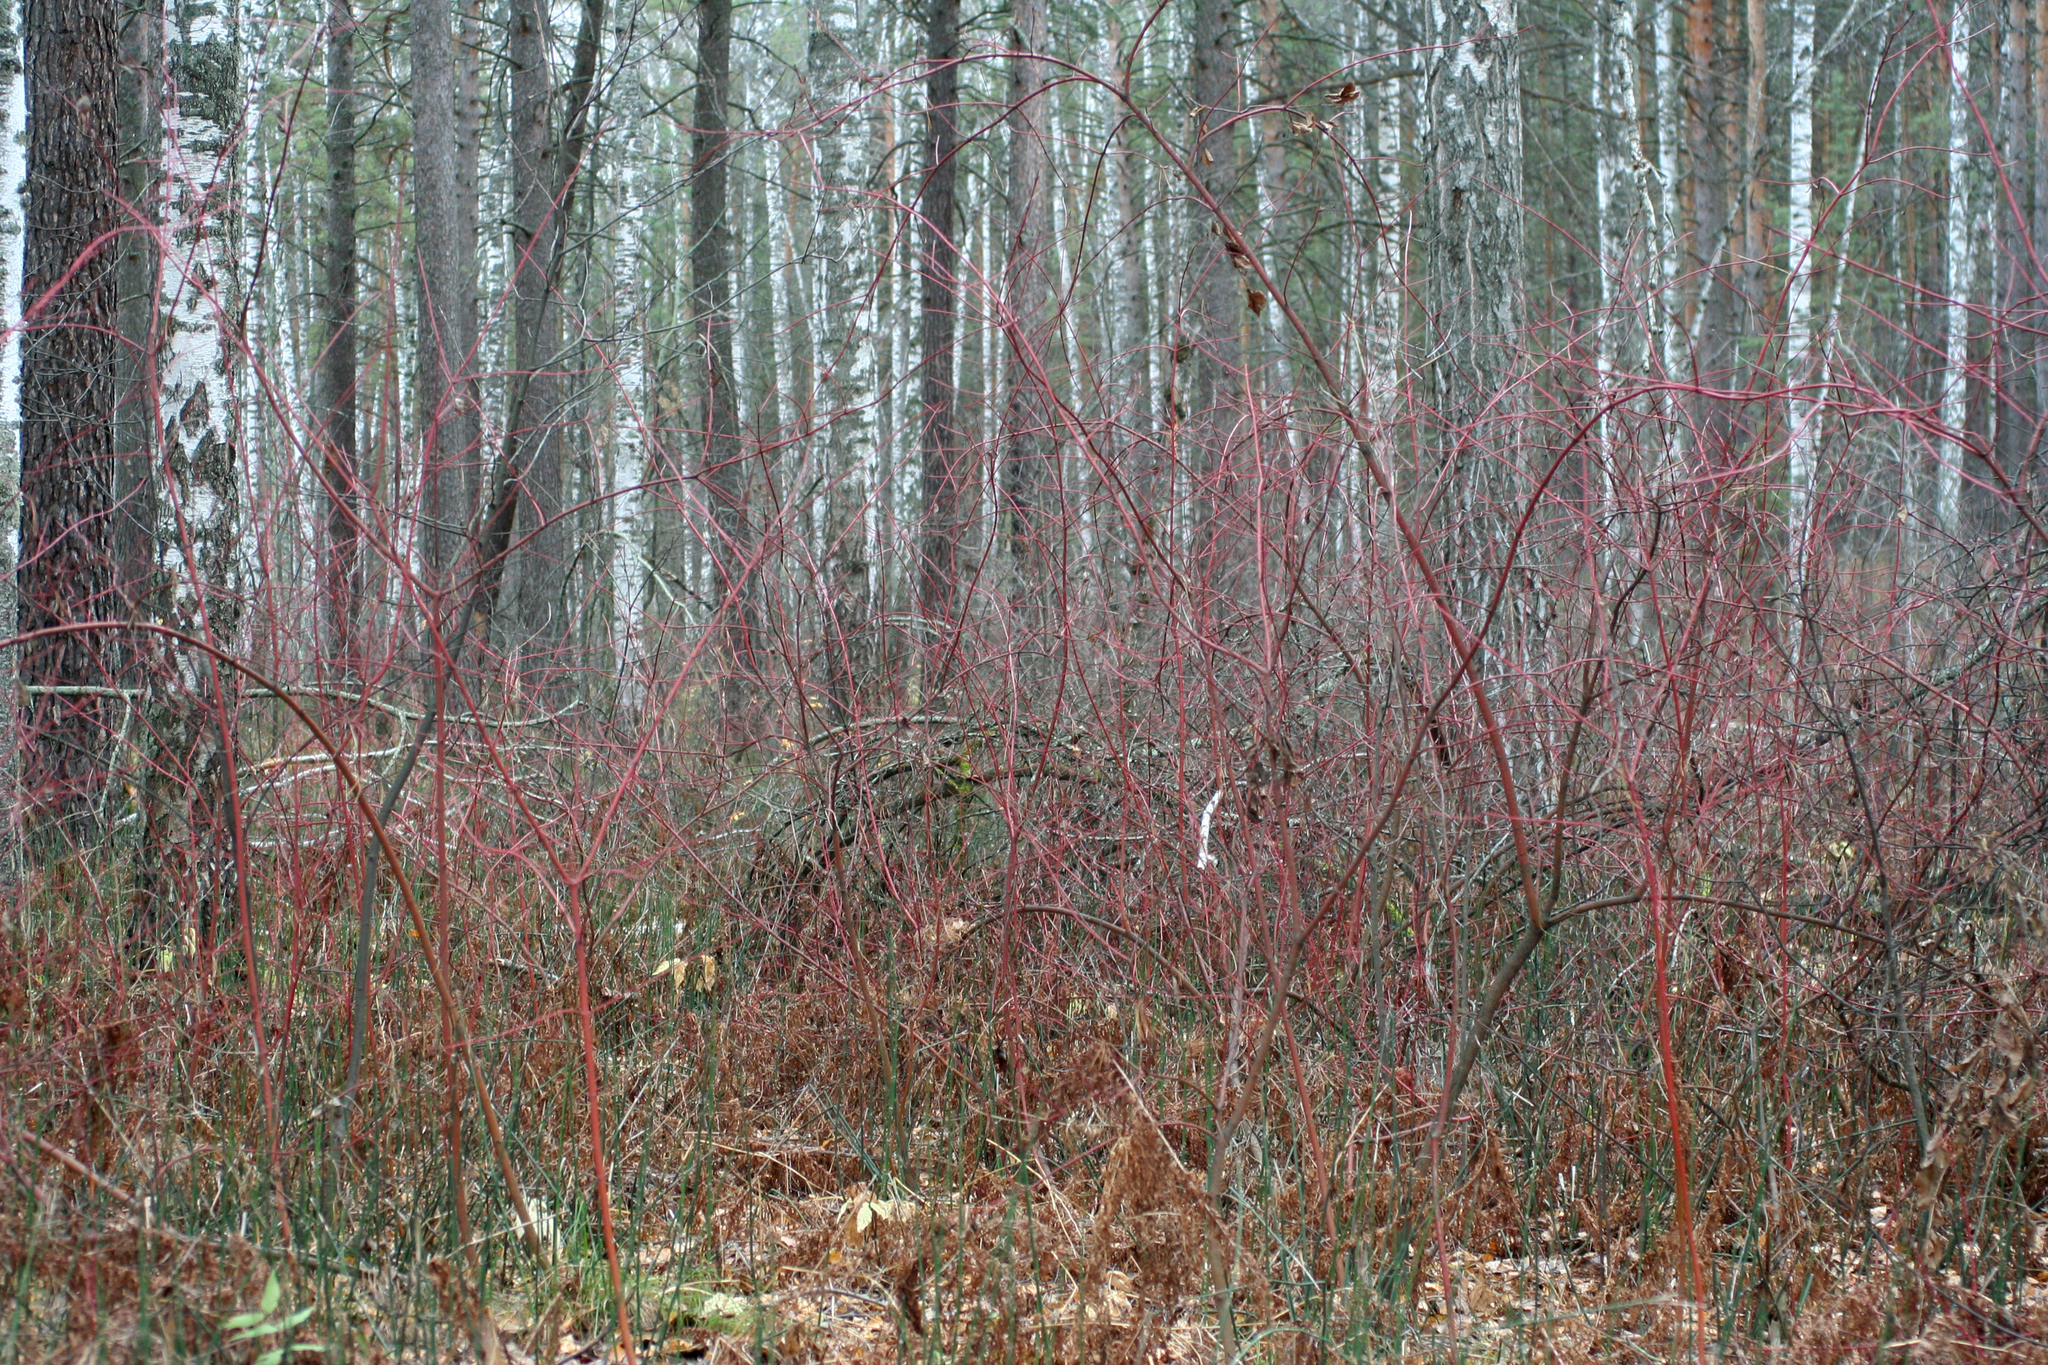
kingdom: Plantae
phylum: Tracheophyta
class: Magnoliopsida
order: Cornales
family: Cornaceae
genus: Cornus
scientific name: Cornus alba
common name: White dogwood
